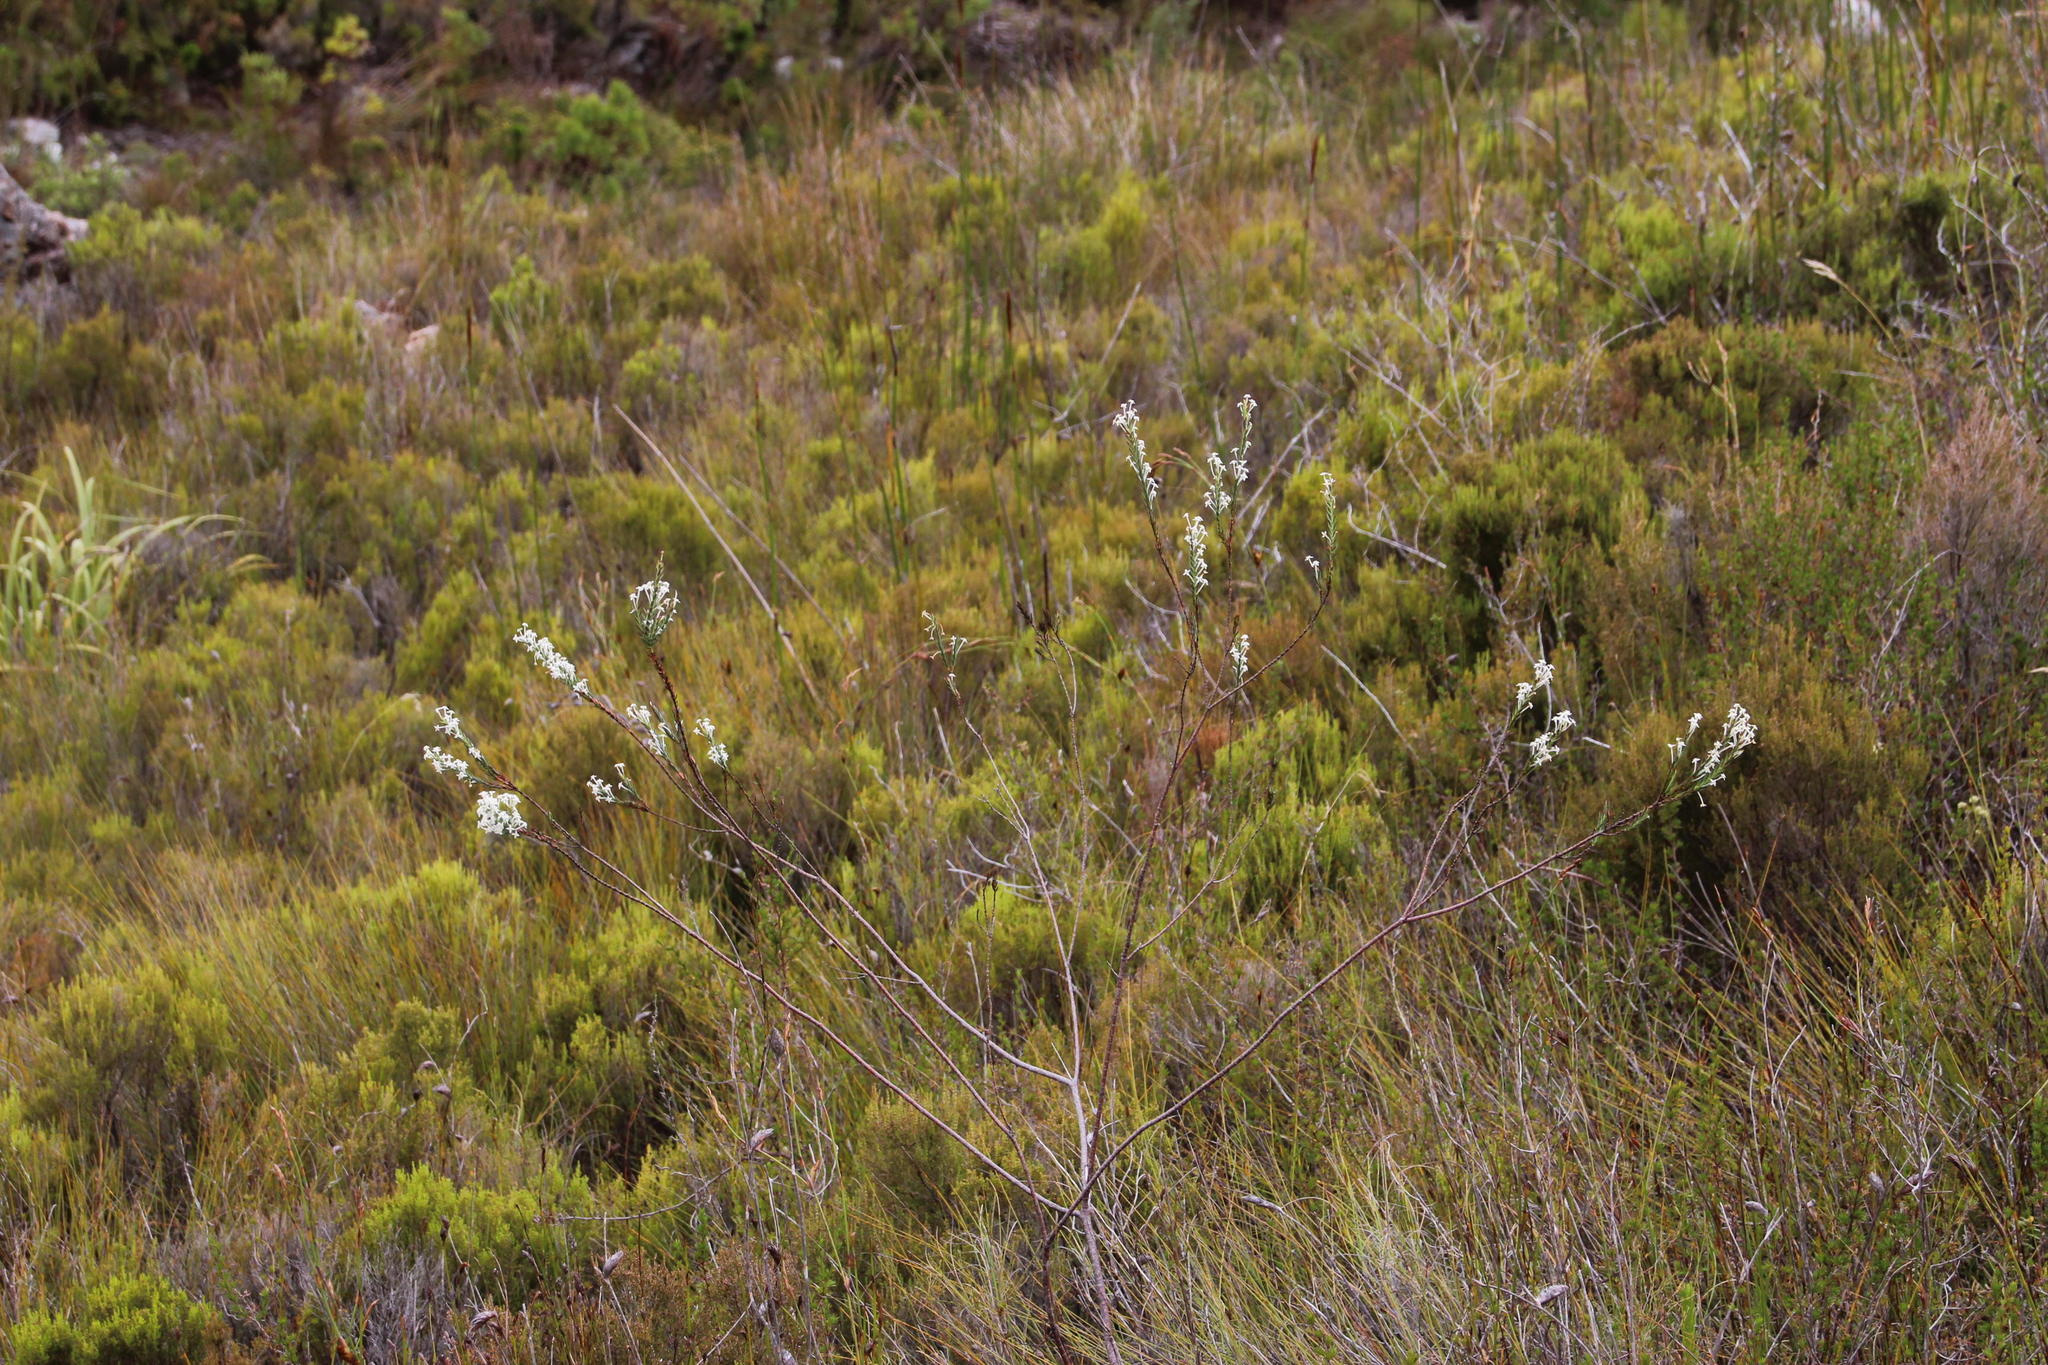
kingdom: Plantae
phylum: Tracheophyta
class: Magnoliopsida
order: Malvales
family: Thymelaeaceae
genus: Struthiola
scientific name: Struthiola myrsinites
